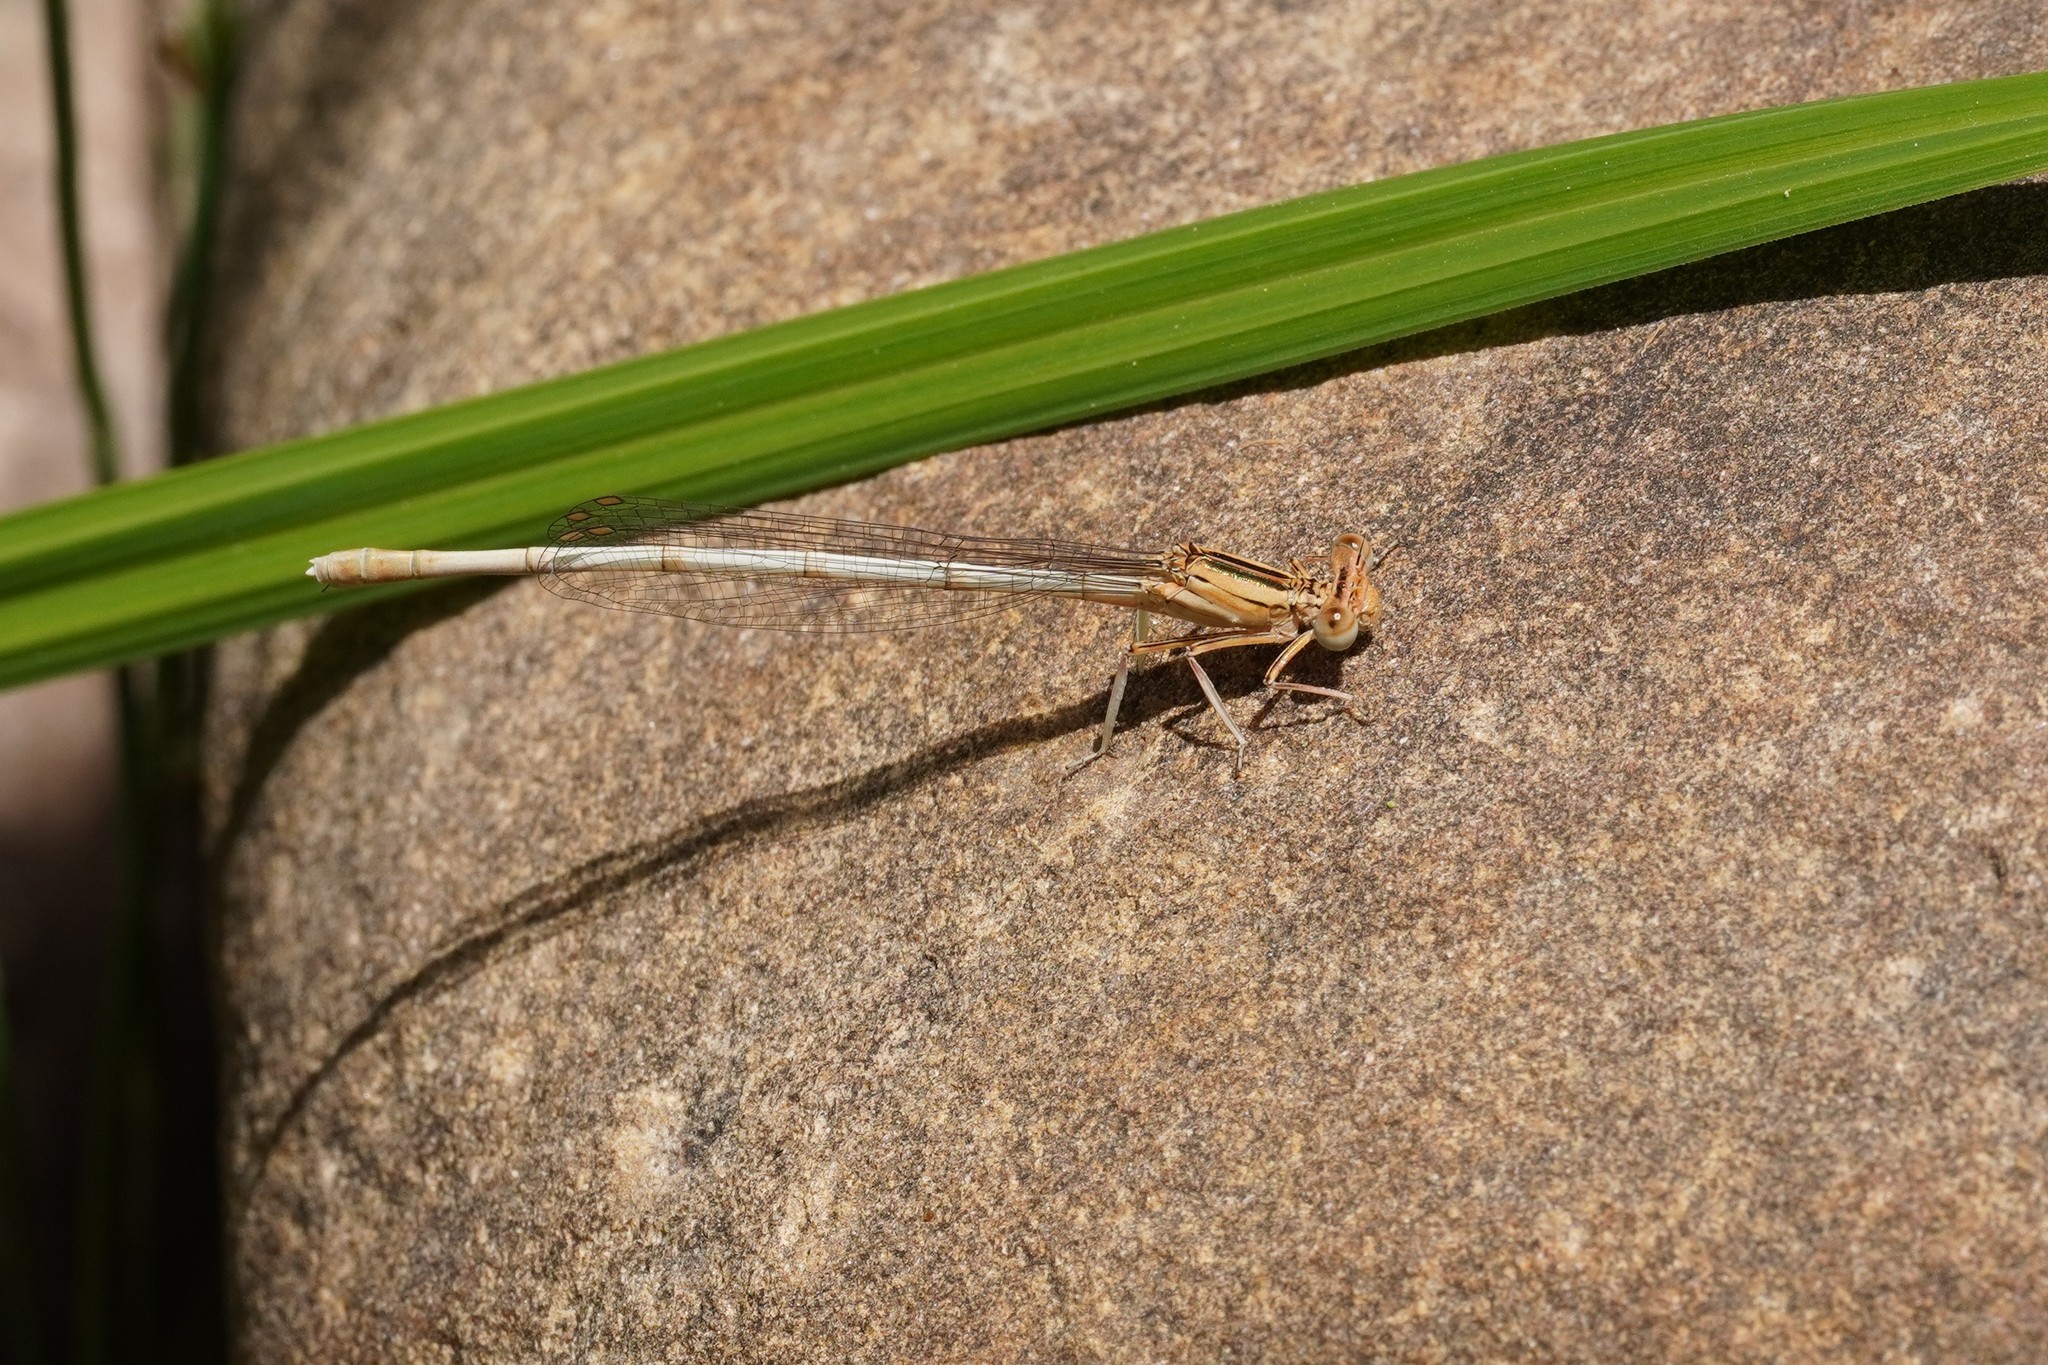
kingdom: Animalia
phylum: Arthropoda
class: Insecta
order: Odonata
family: Platycnemididae
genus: Platycnemis
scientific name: Platycnemis latipes
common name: White featherleg
